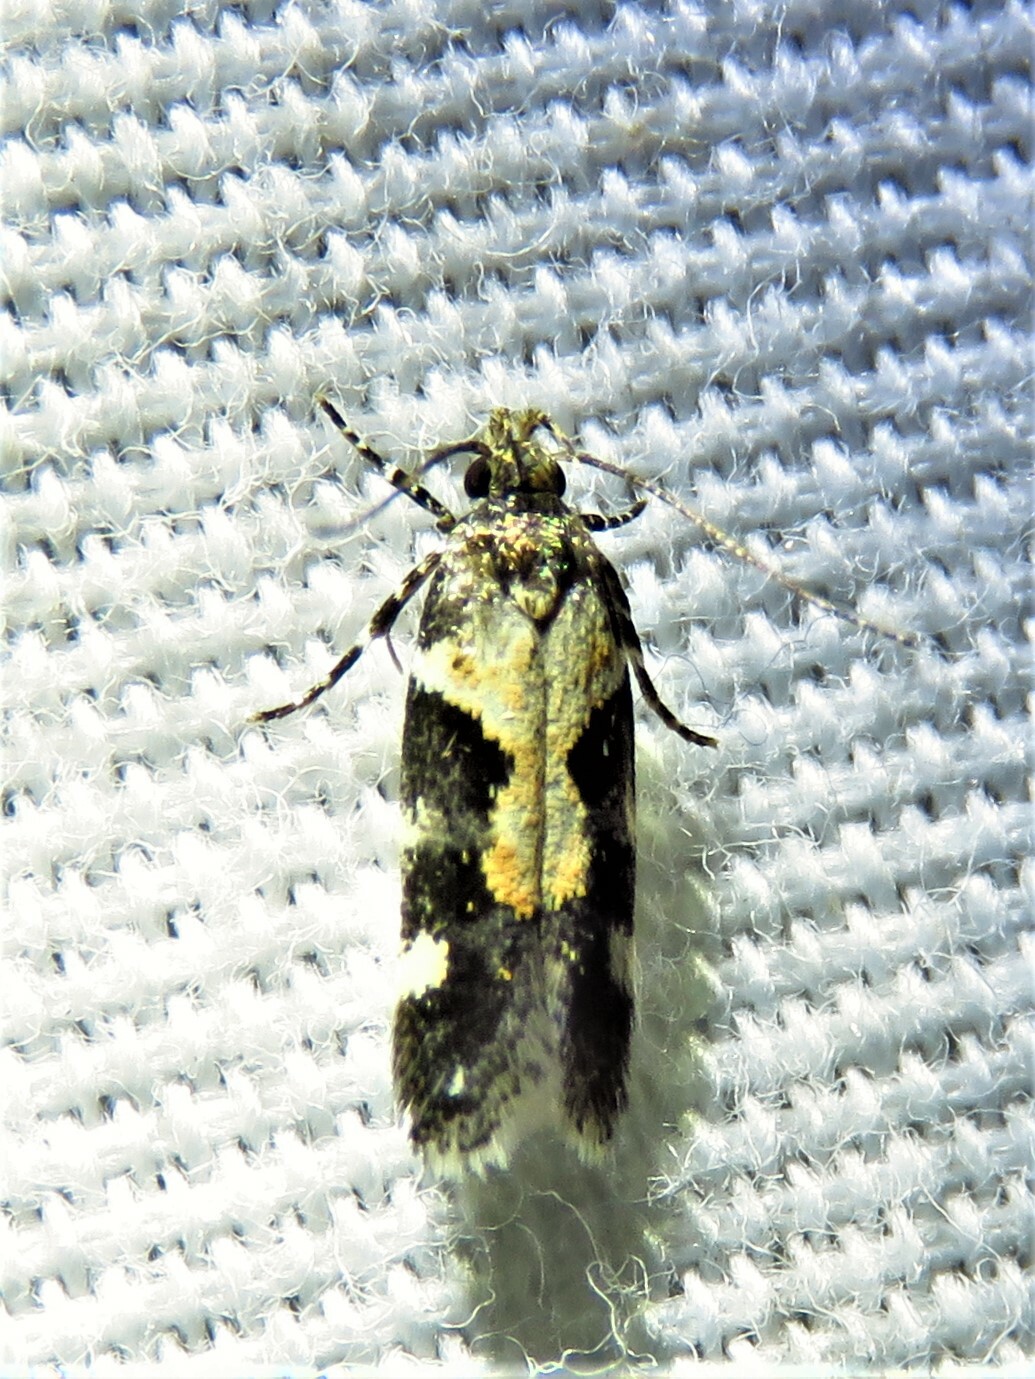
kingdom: Animalia
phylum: Arthropoda
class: Insecta
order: Lepidoptera
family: Gelechiidae
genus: Stegasta
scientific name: Stegasta bosqueella
